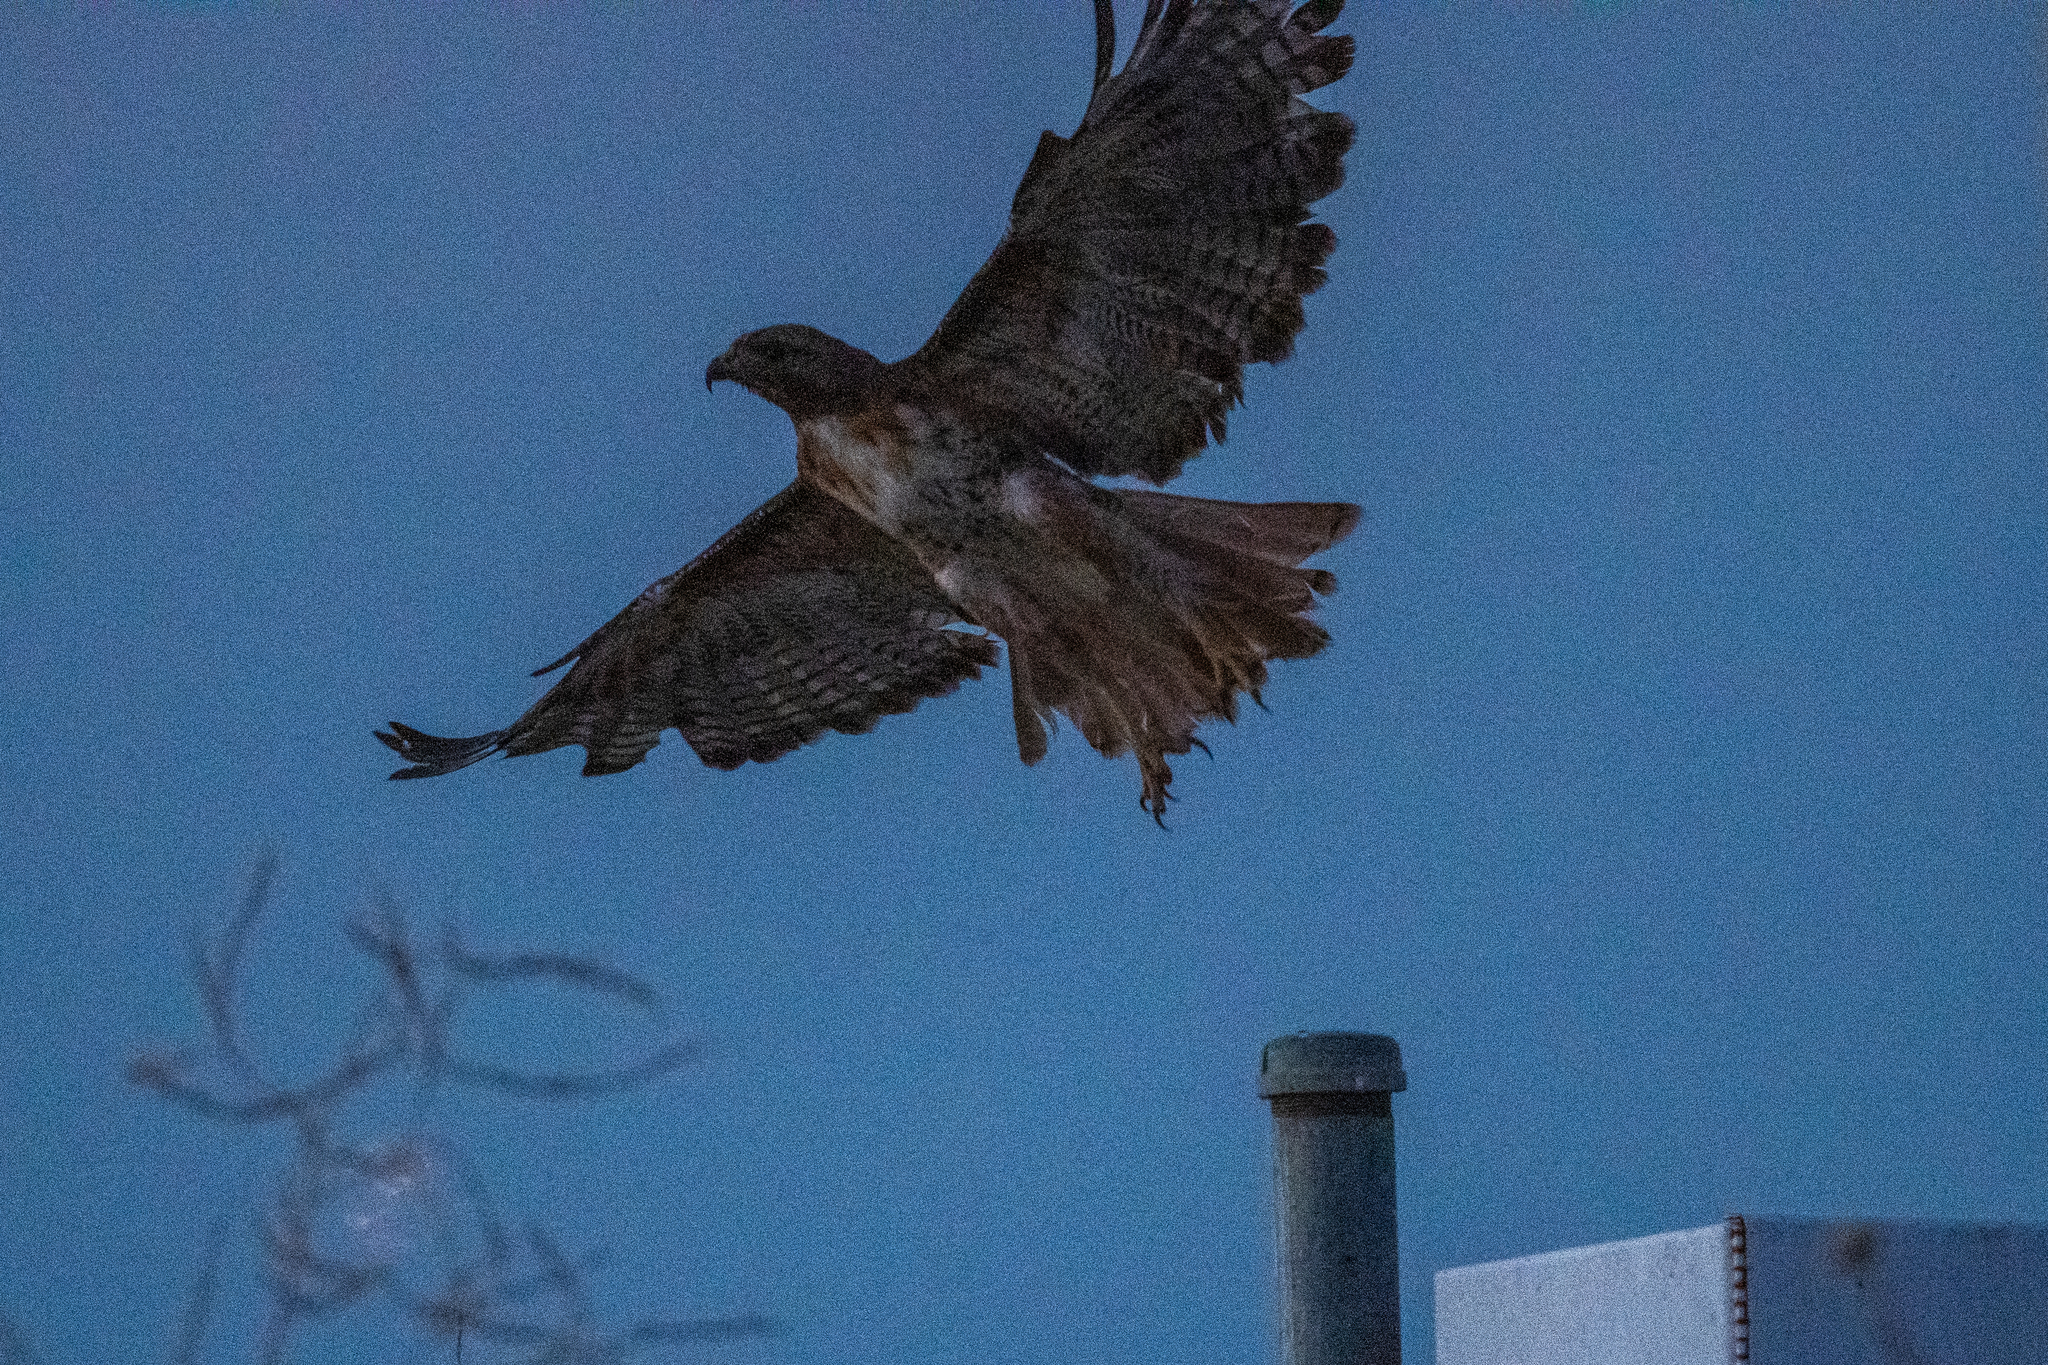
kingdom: Animalia
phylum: Chordata
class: Aves
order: Accipitriformes
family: Accipitridae
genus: Buteo
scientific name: Buteo jamaicensis
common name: Red-tailed hawk
